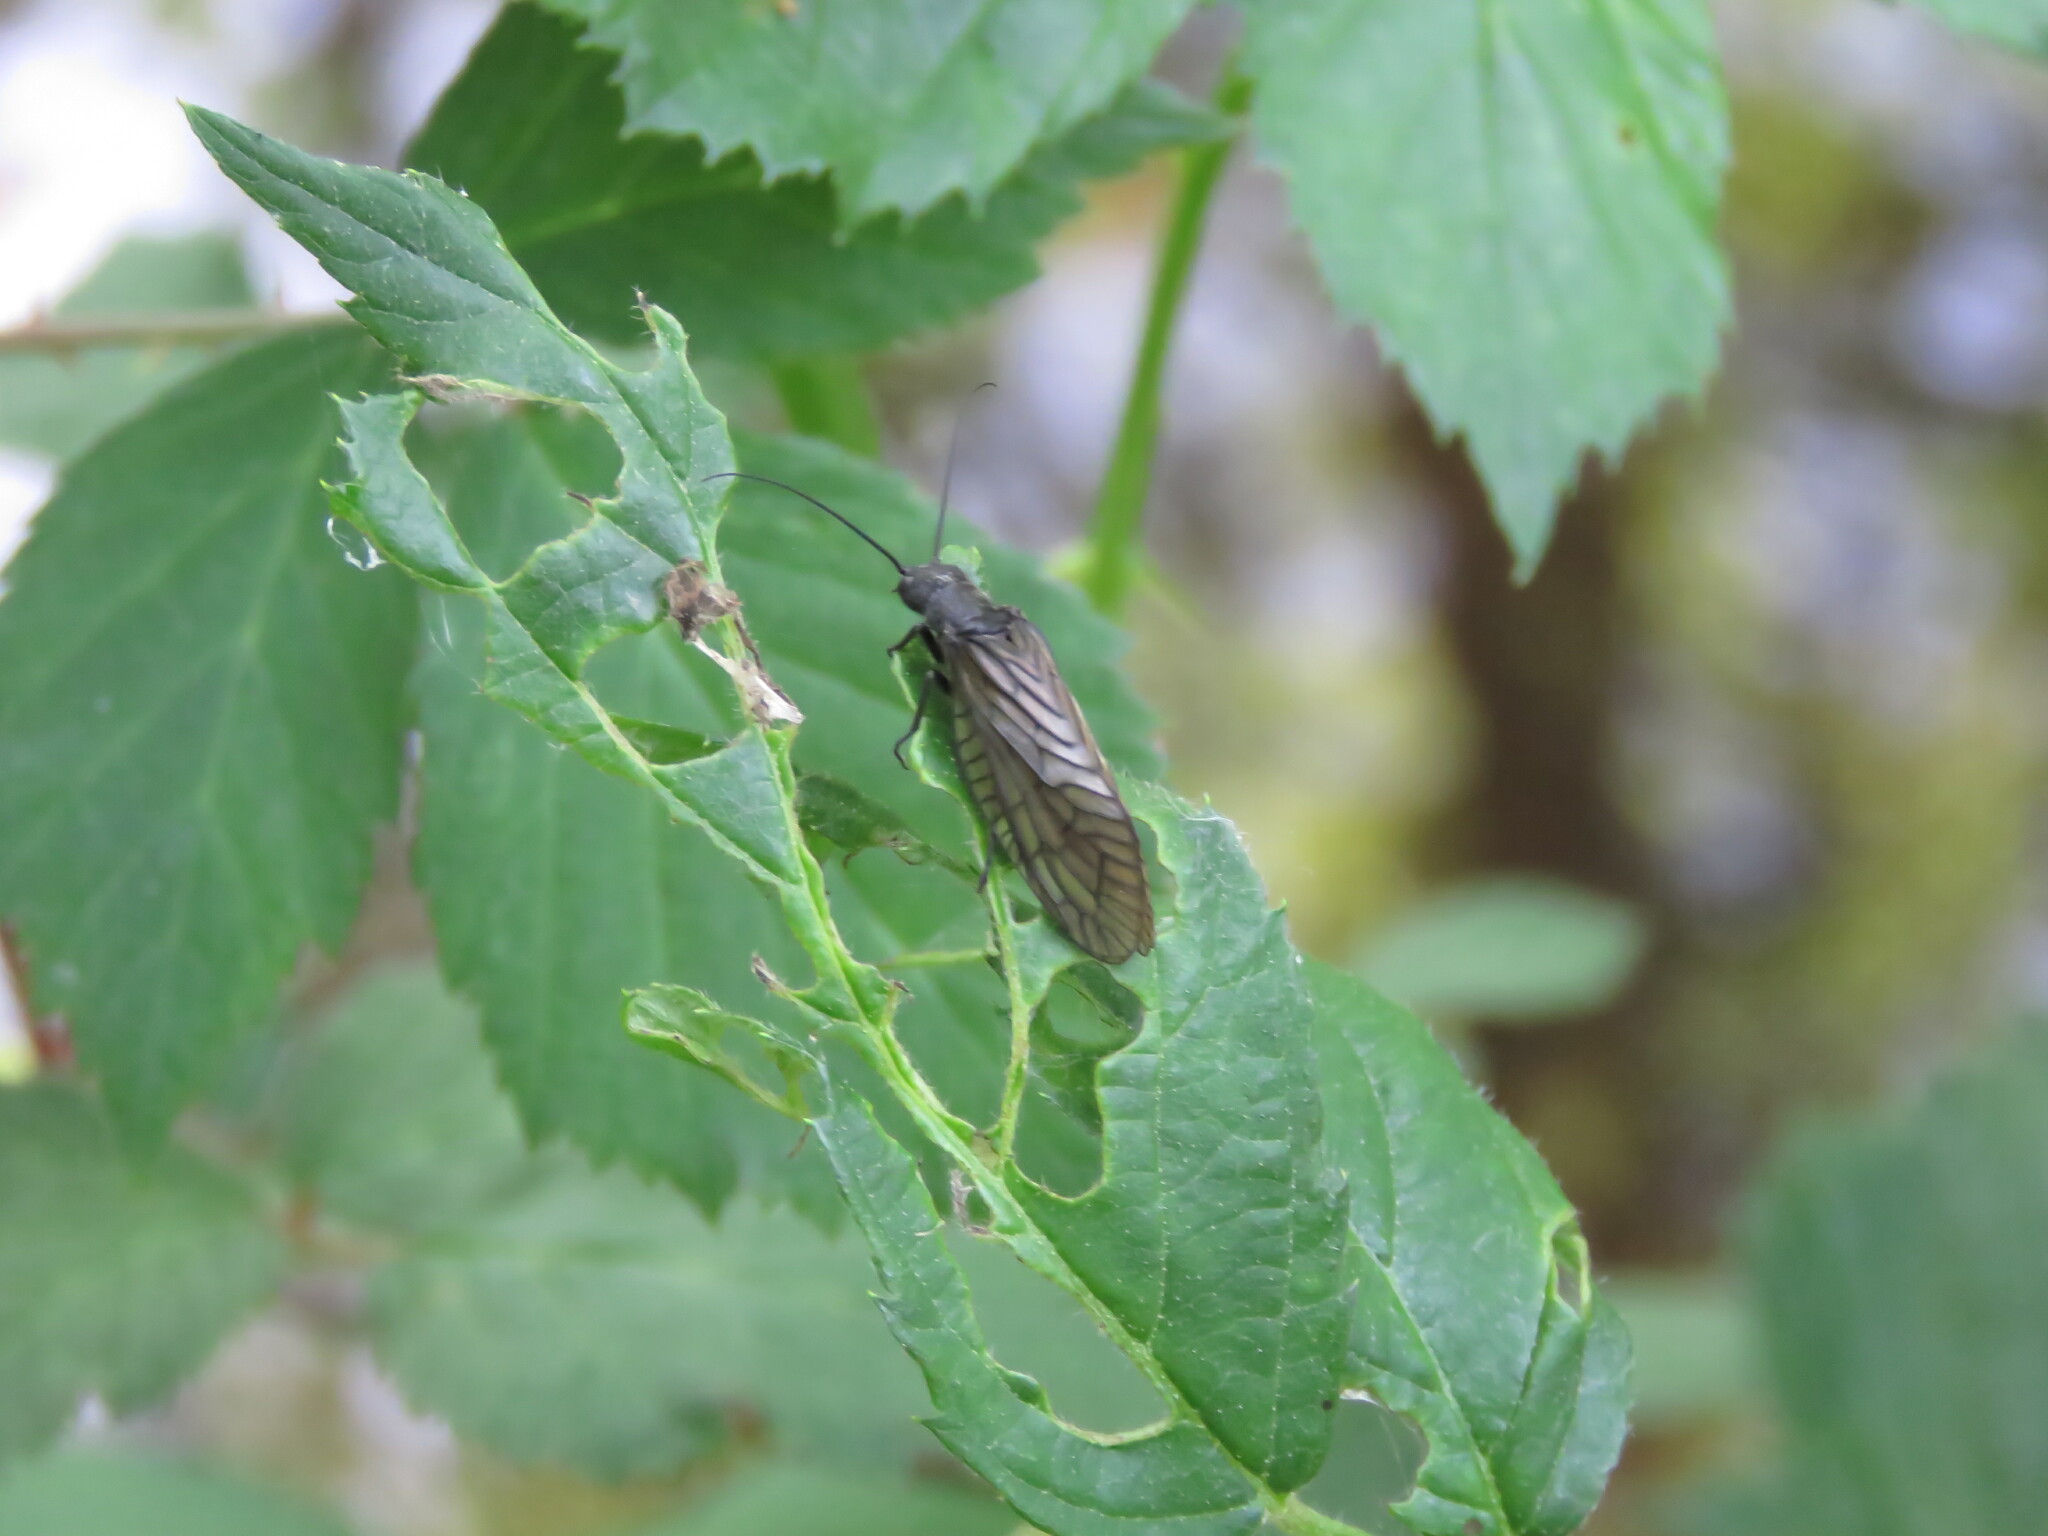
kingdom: Animalia
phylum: Arthropoda
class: Insecta
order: Megaloptera
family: Sialidae
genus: Sialis
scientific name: Sialis
